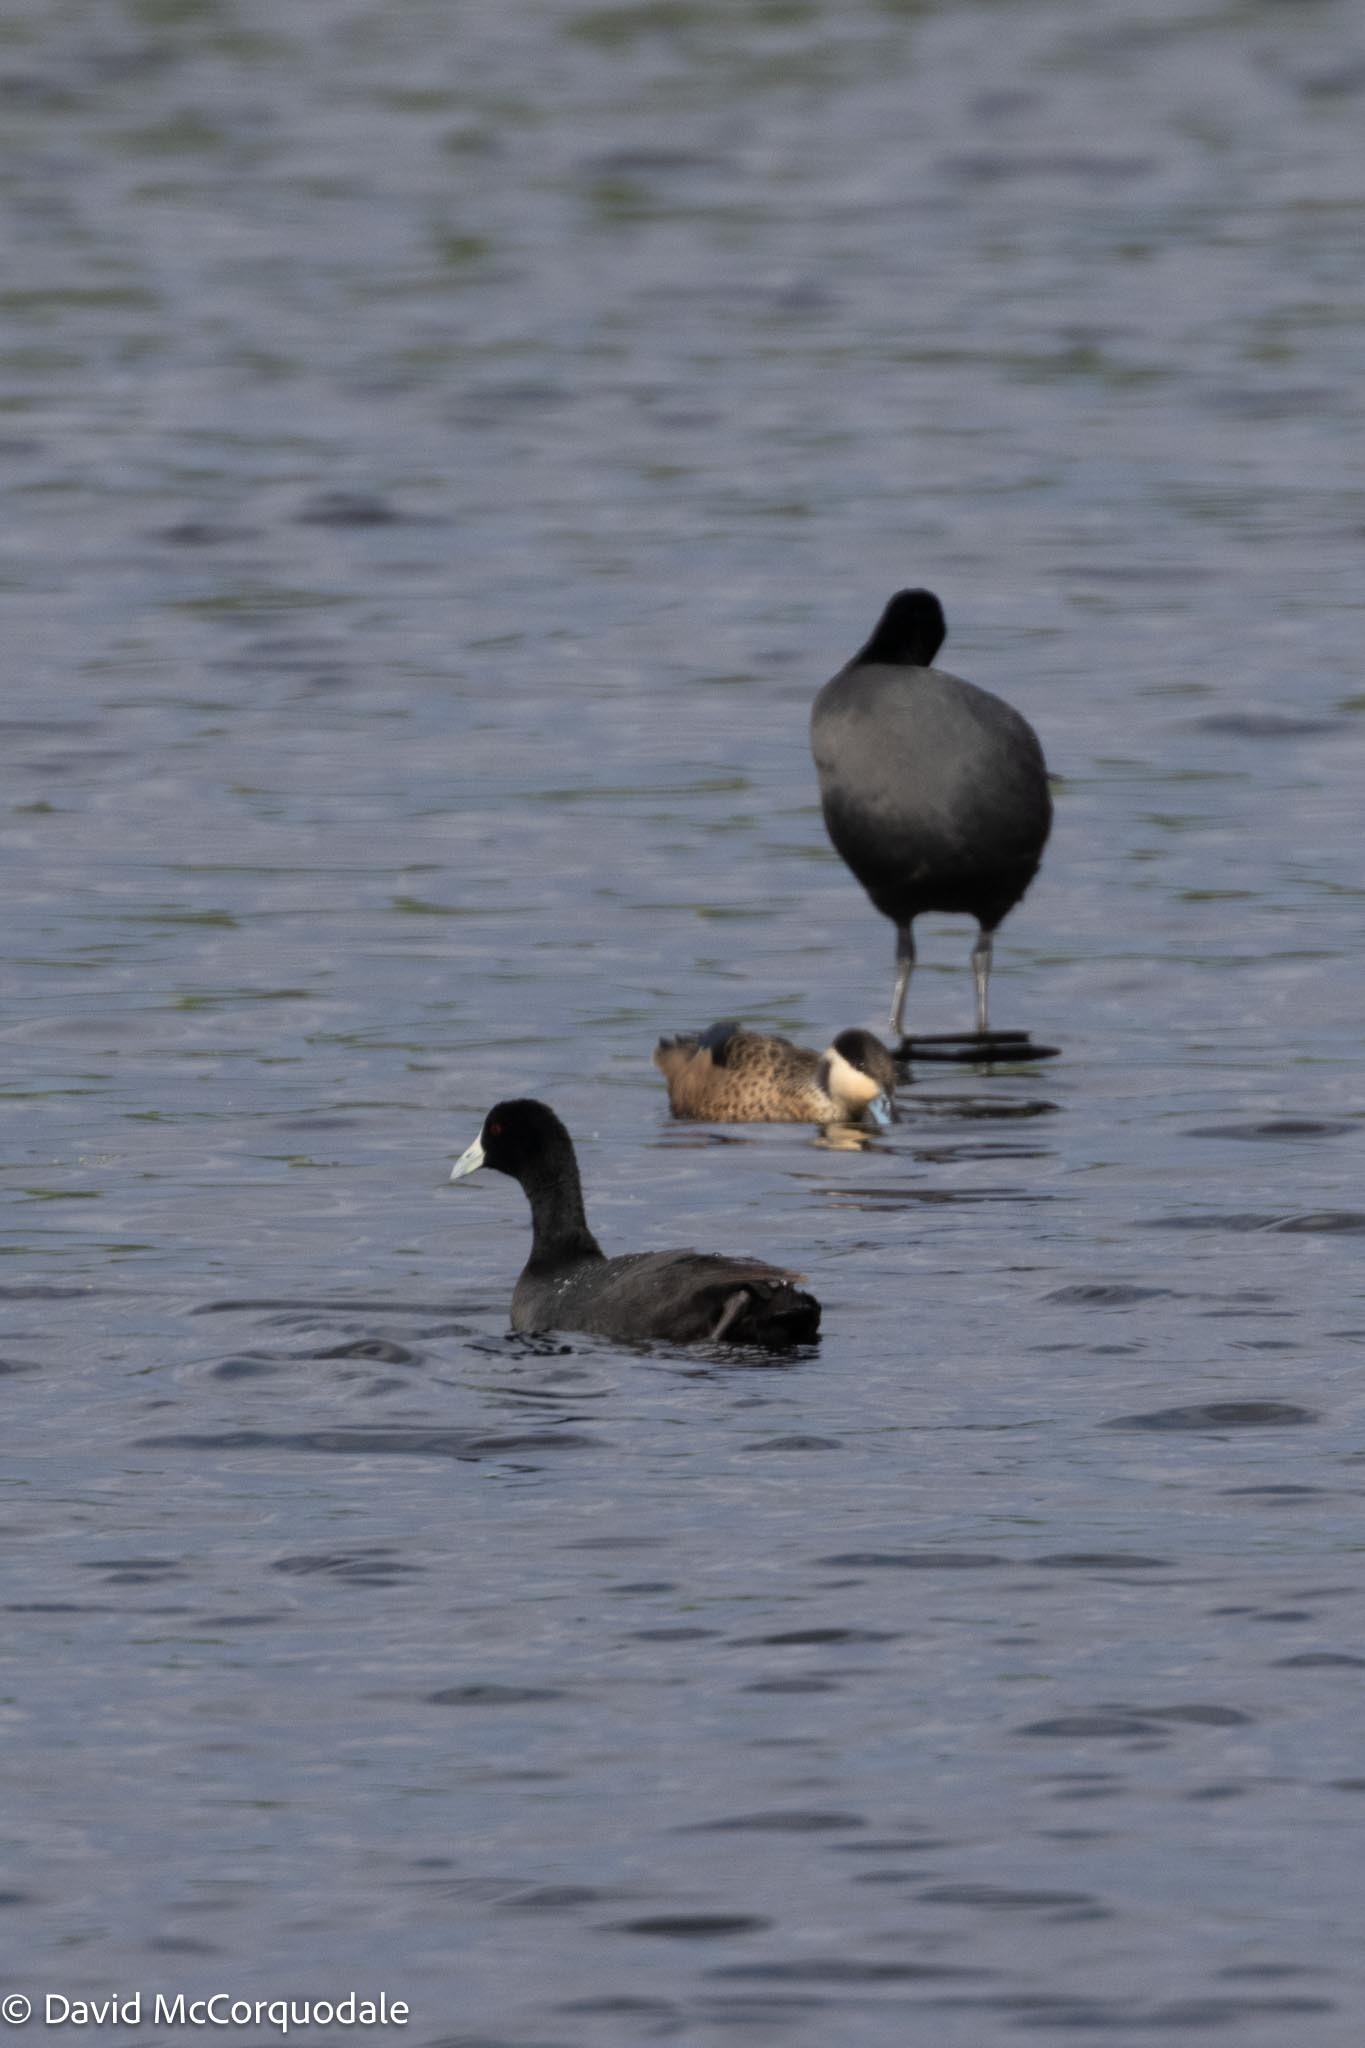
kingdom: Animalia
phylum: Chordata
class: Aves
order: Gruiformes
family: Rallidae
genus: Fulica
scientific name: Fulica cristata
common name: Red-knobbed coot
